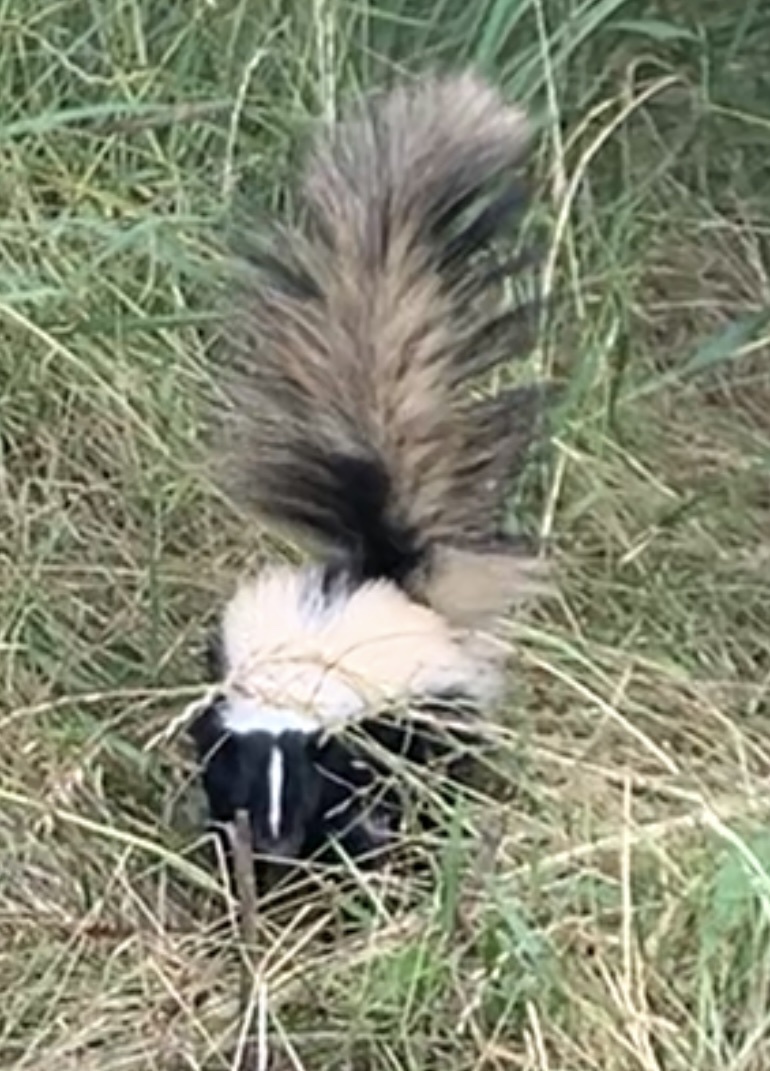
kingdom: Animalia
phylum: Chordata
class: Mammalia
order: Carnivora
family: Mephitidae
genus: Mephitis
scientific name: Mephitis mephitis
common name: Striped skunk
